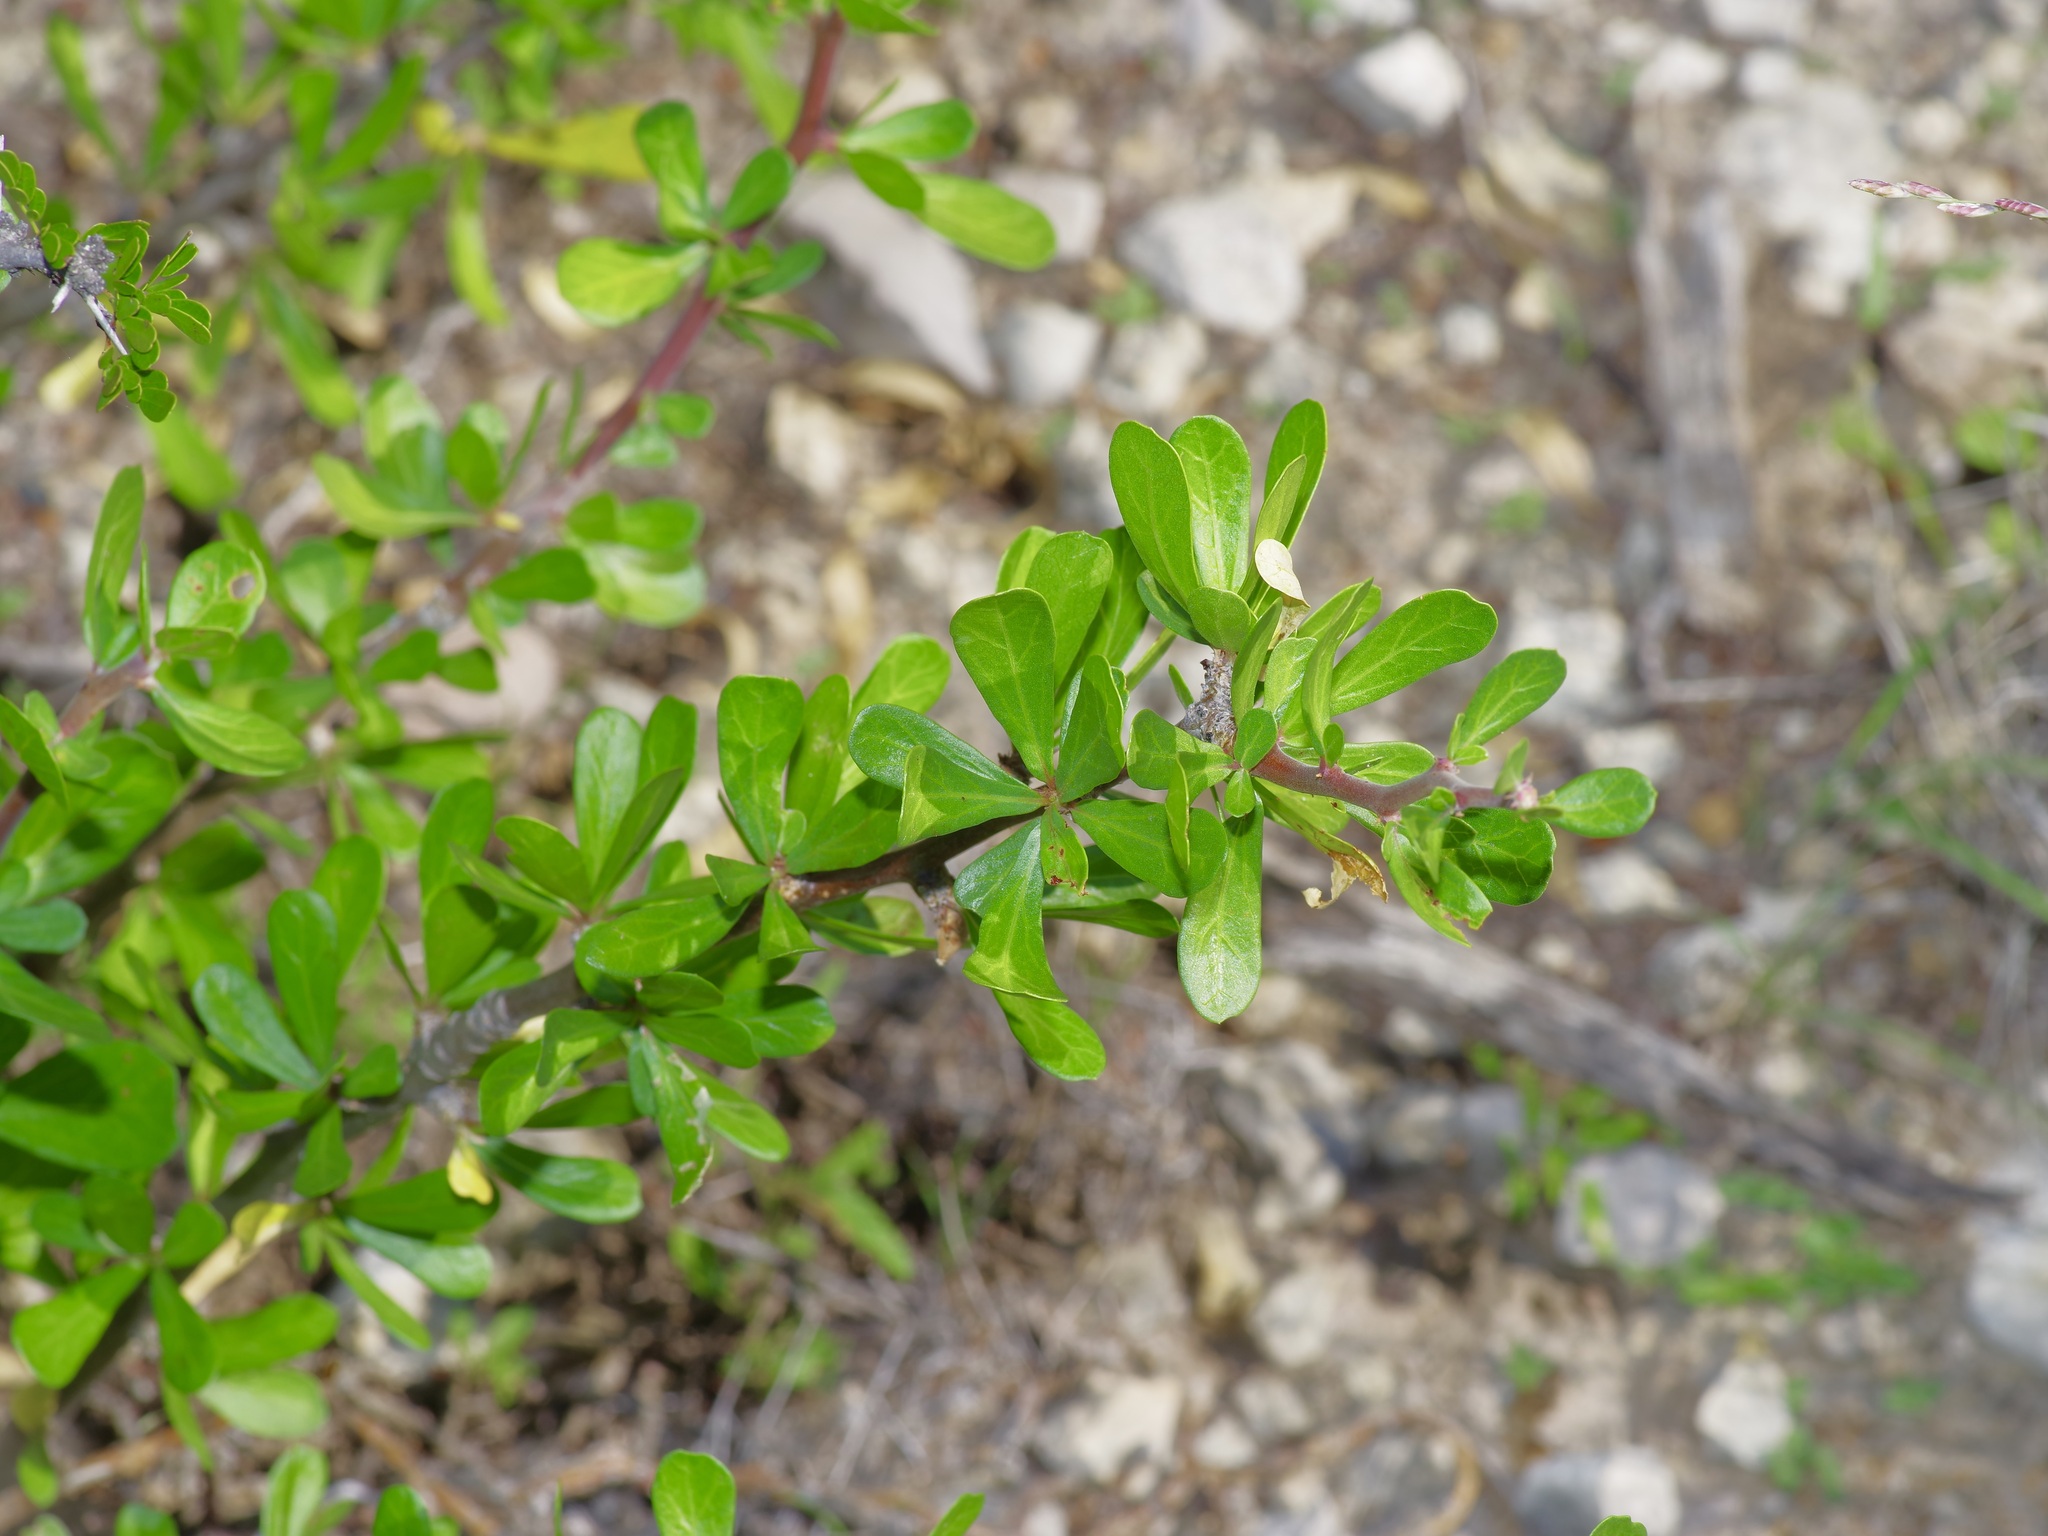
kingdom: Plantae
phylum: Tracheophyta
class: Magnoliopsida
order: Malpighiales
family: Euphorbiaceae
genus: Jatropha
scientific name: Jatropha dioica
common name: Leatherstem
